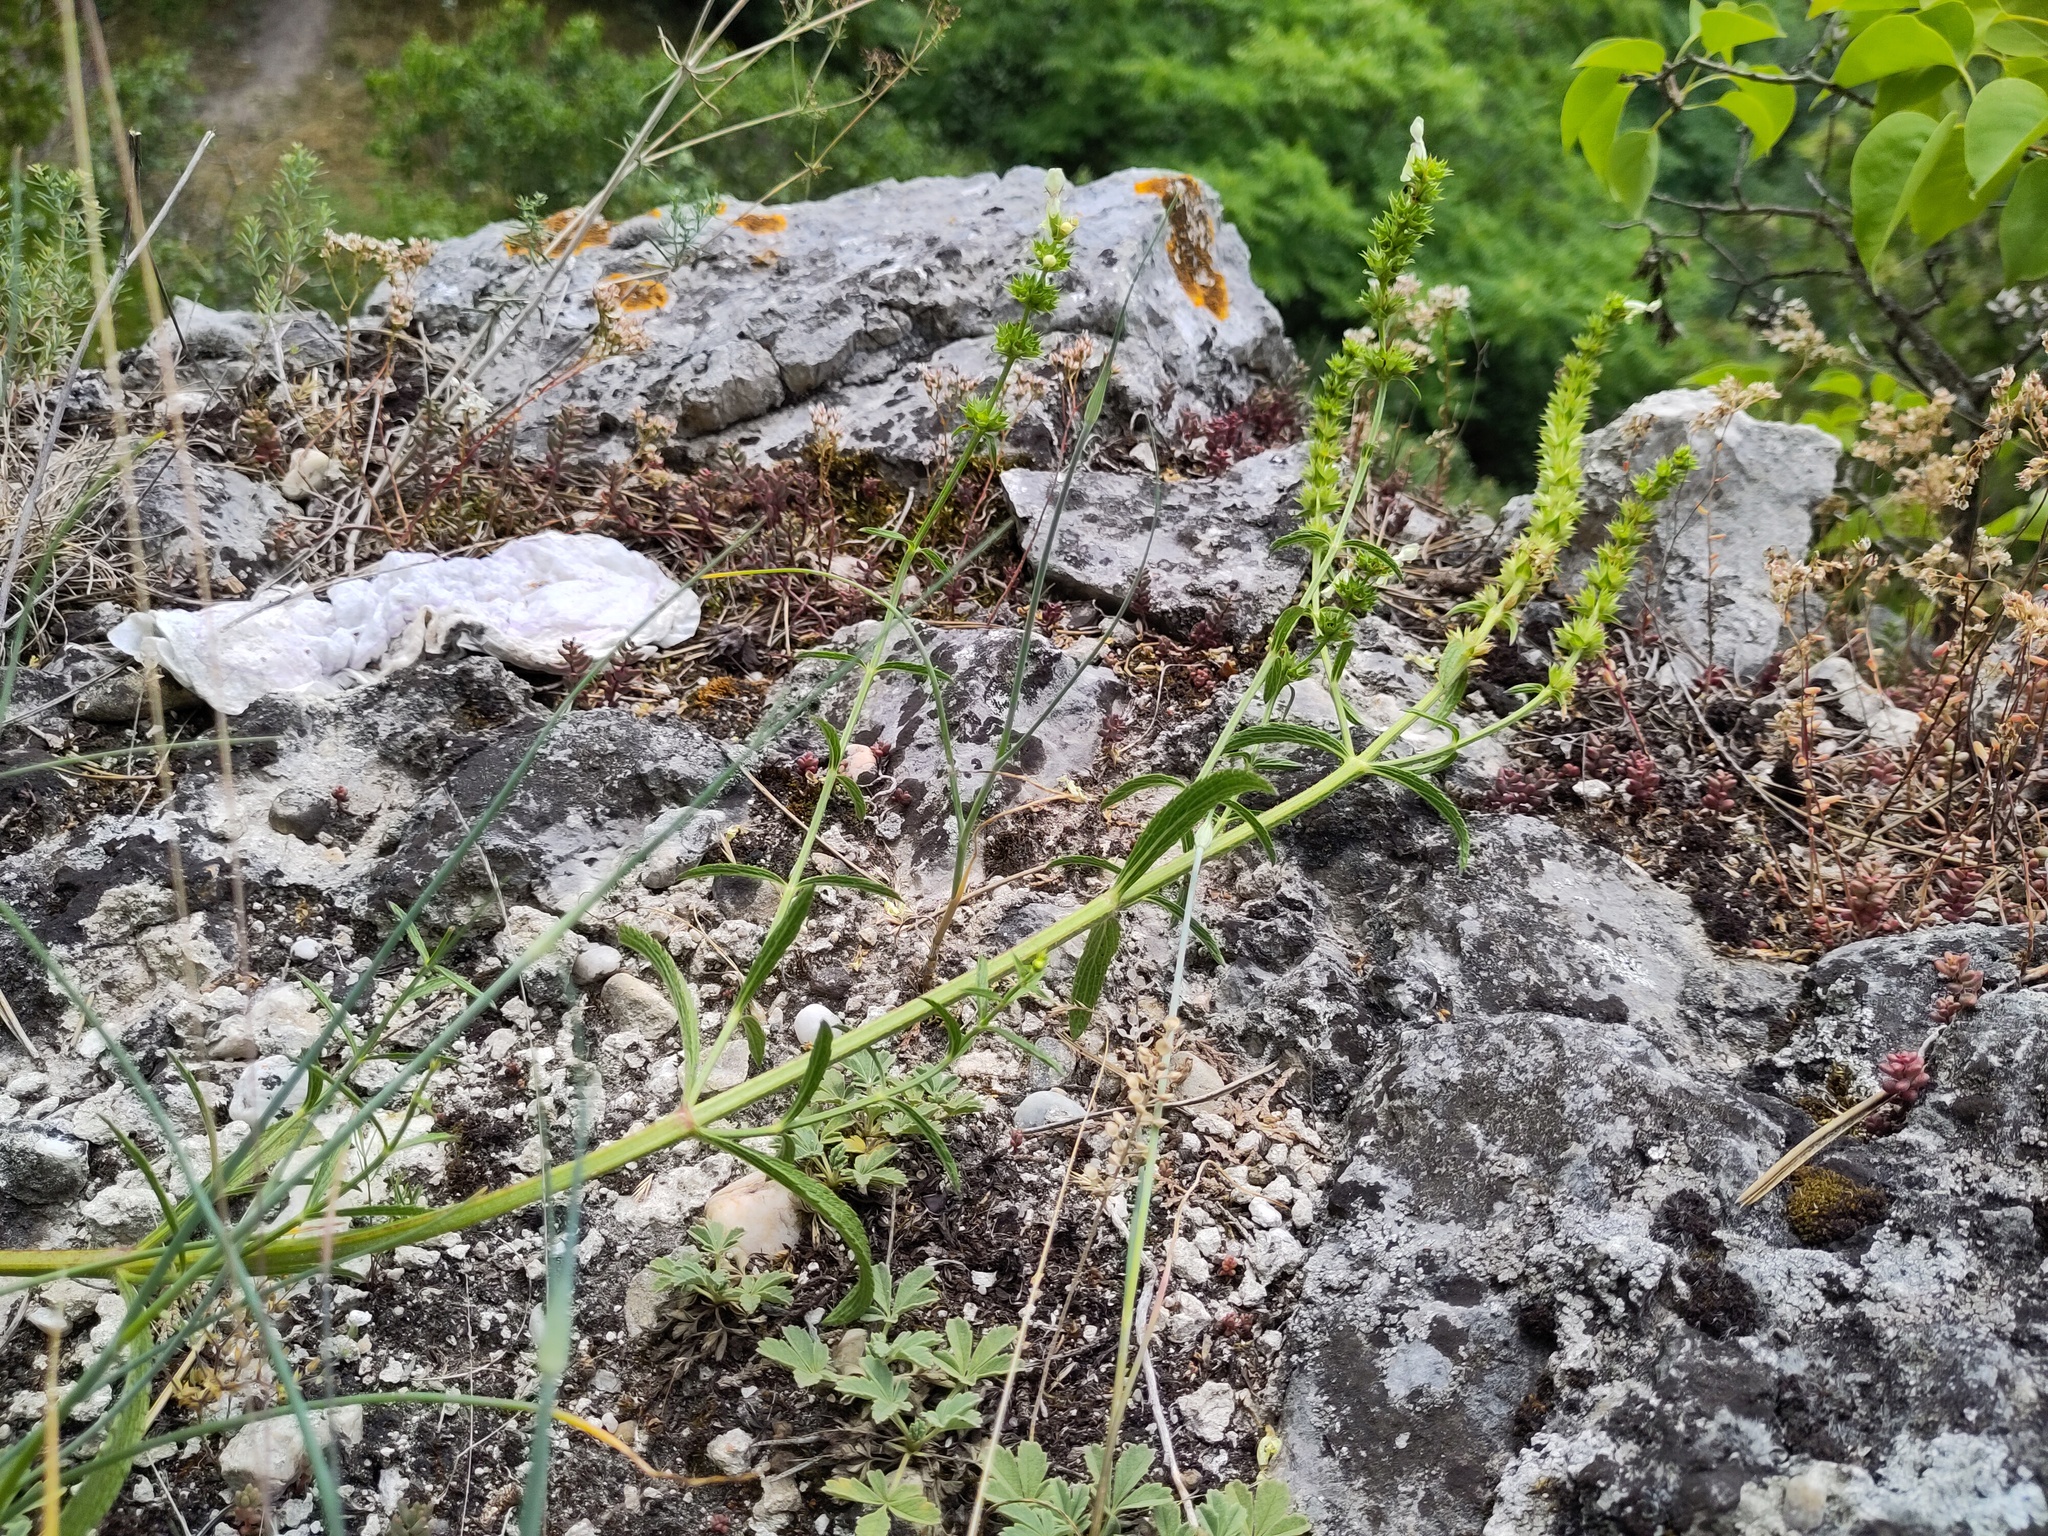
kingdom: Plantae
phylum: Tracheophyta
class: Magnoliopsida
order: Lamiales
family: Lamiaceae
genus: Stachys
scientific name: Stachys recta
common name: Perennial yellow-woundwort
